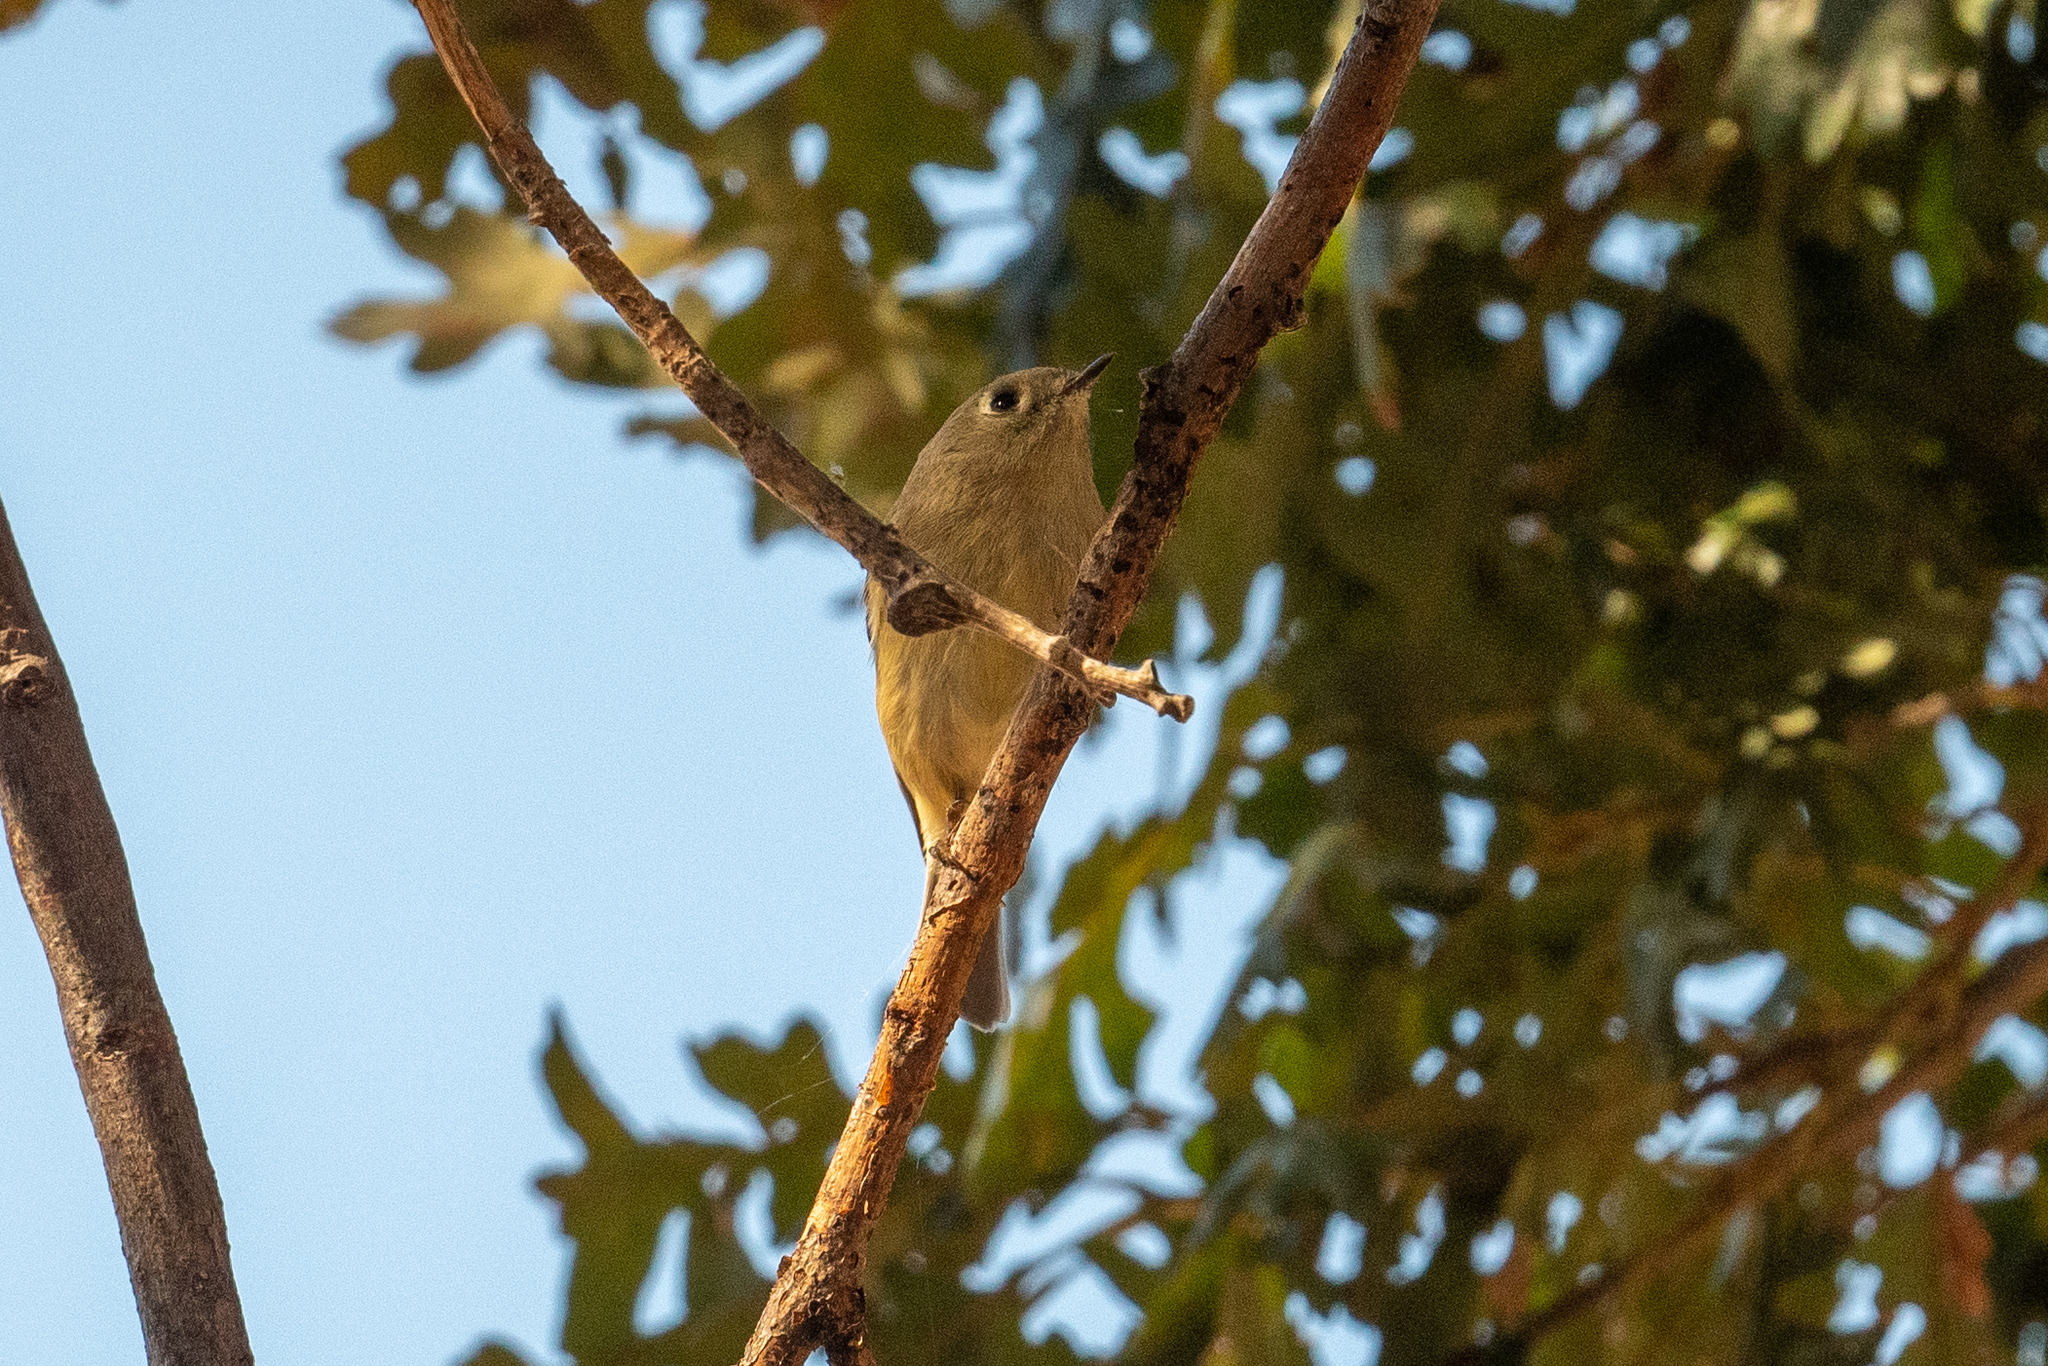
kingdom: Animalia
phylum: Chordata
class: Aves
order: Passeriformes
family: Regulidae
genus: Regulus
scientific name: Regulus calendula
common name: Ruby-crowned kinglet
